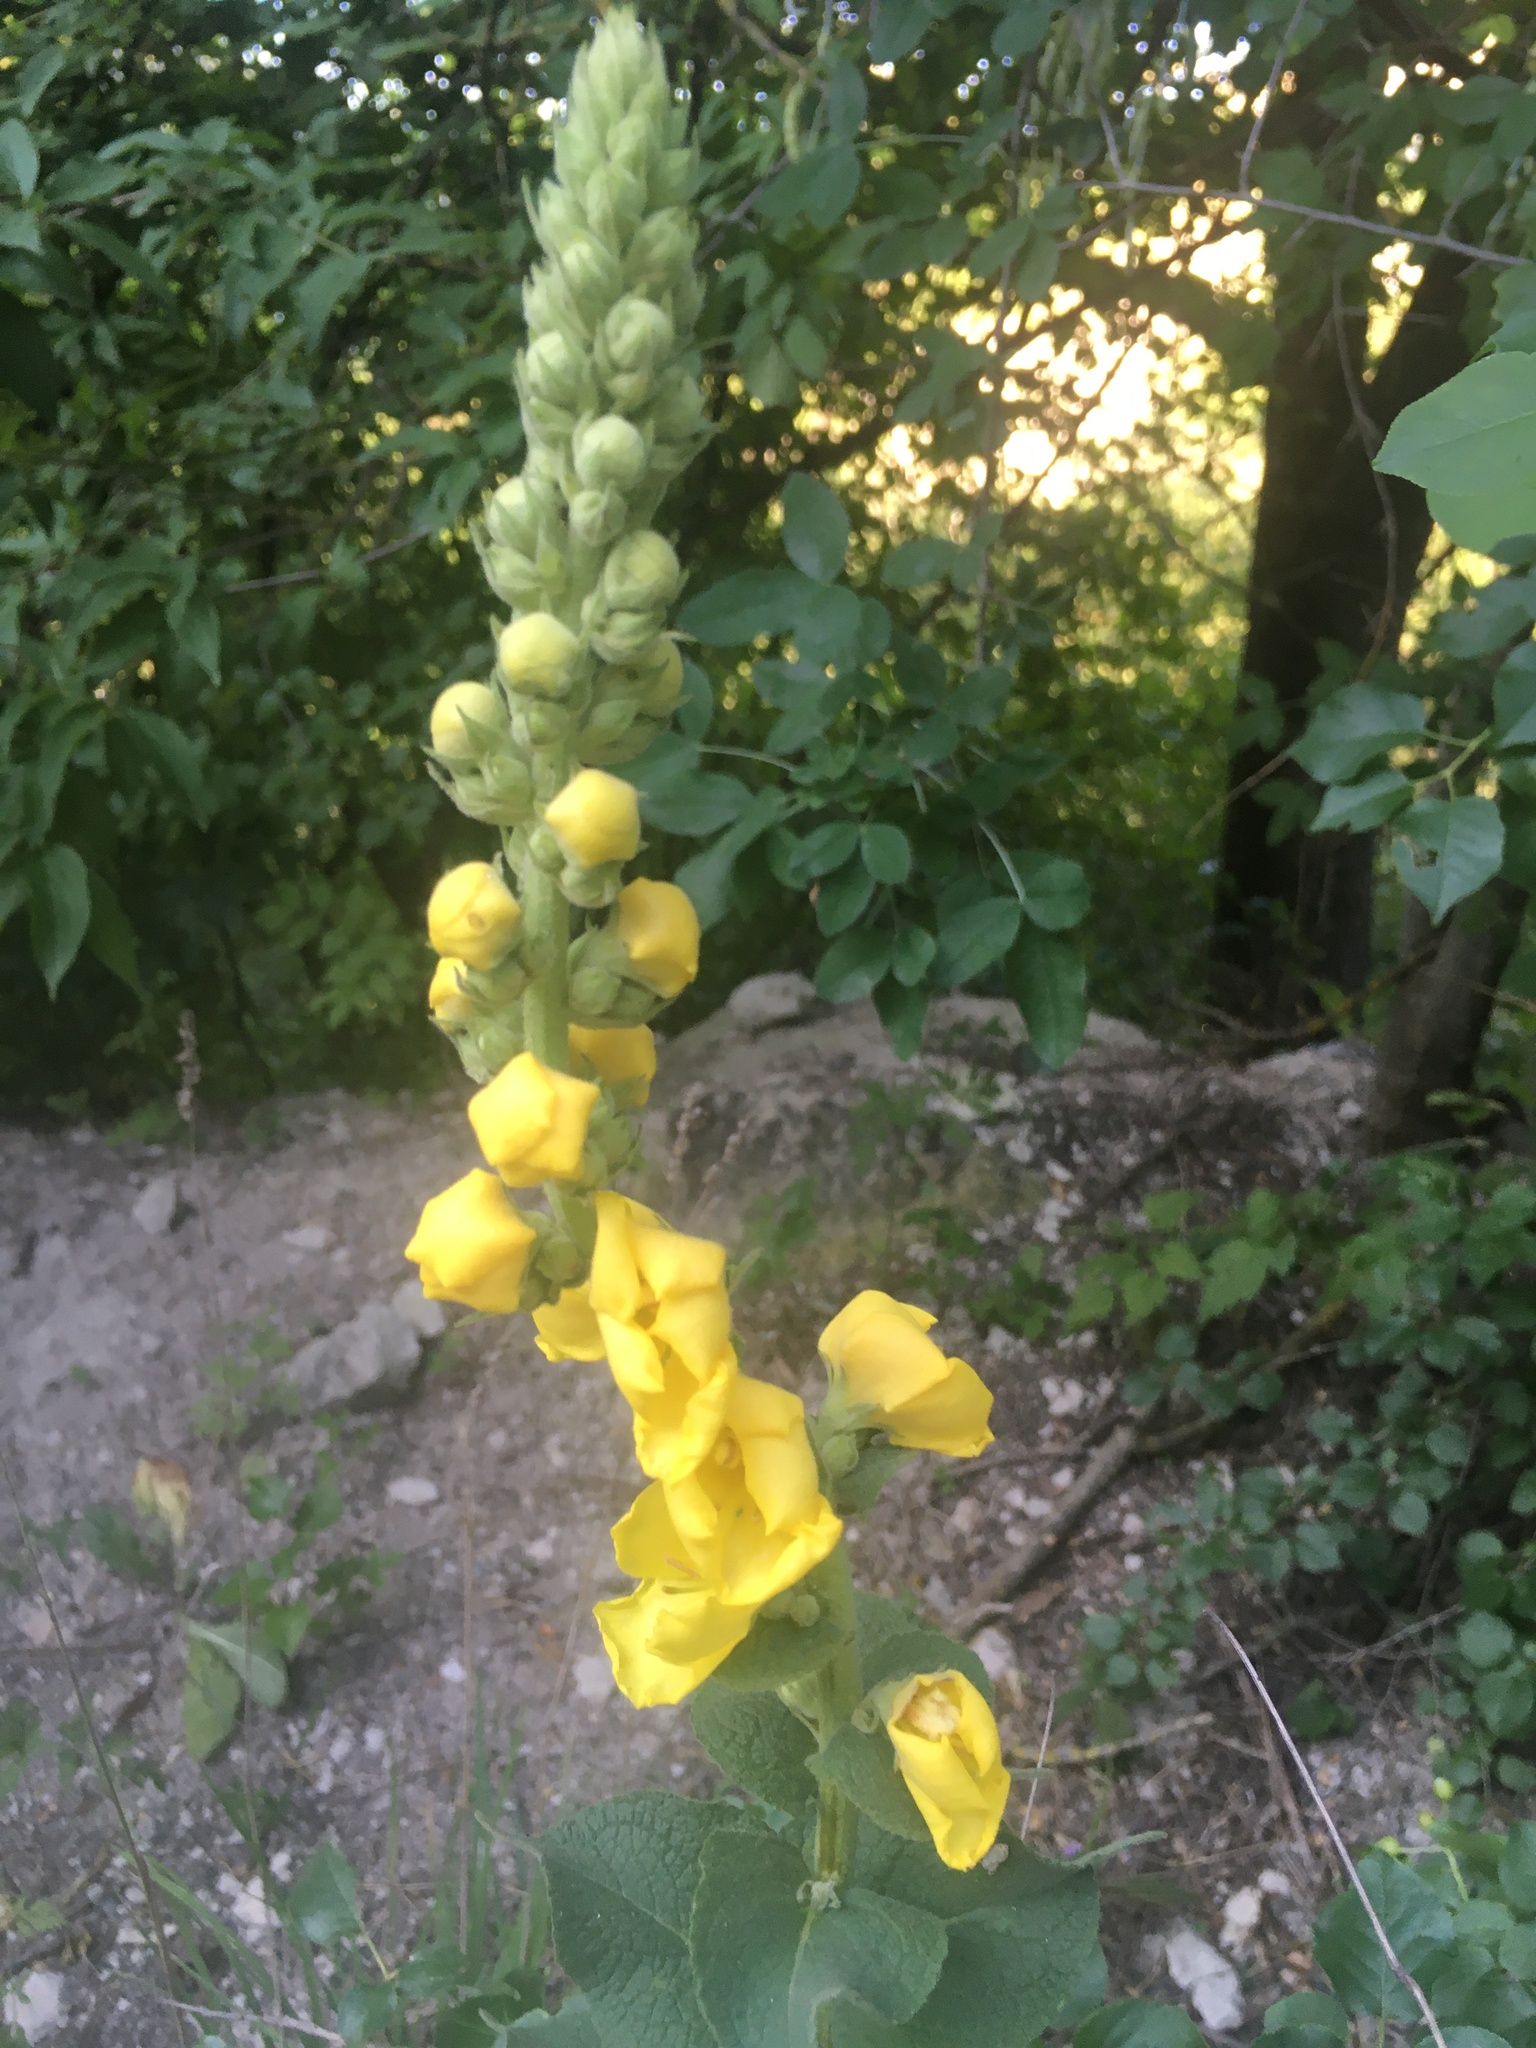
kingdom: Plantae
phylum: Tracheophyta
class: Magnoliopsida
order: Lamiales
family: Scrophulariaceae
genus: Verbascum
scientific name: Verbascum phlomoides
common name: Orange mullein
